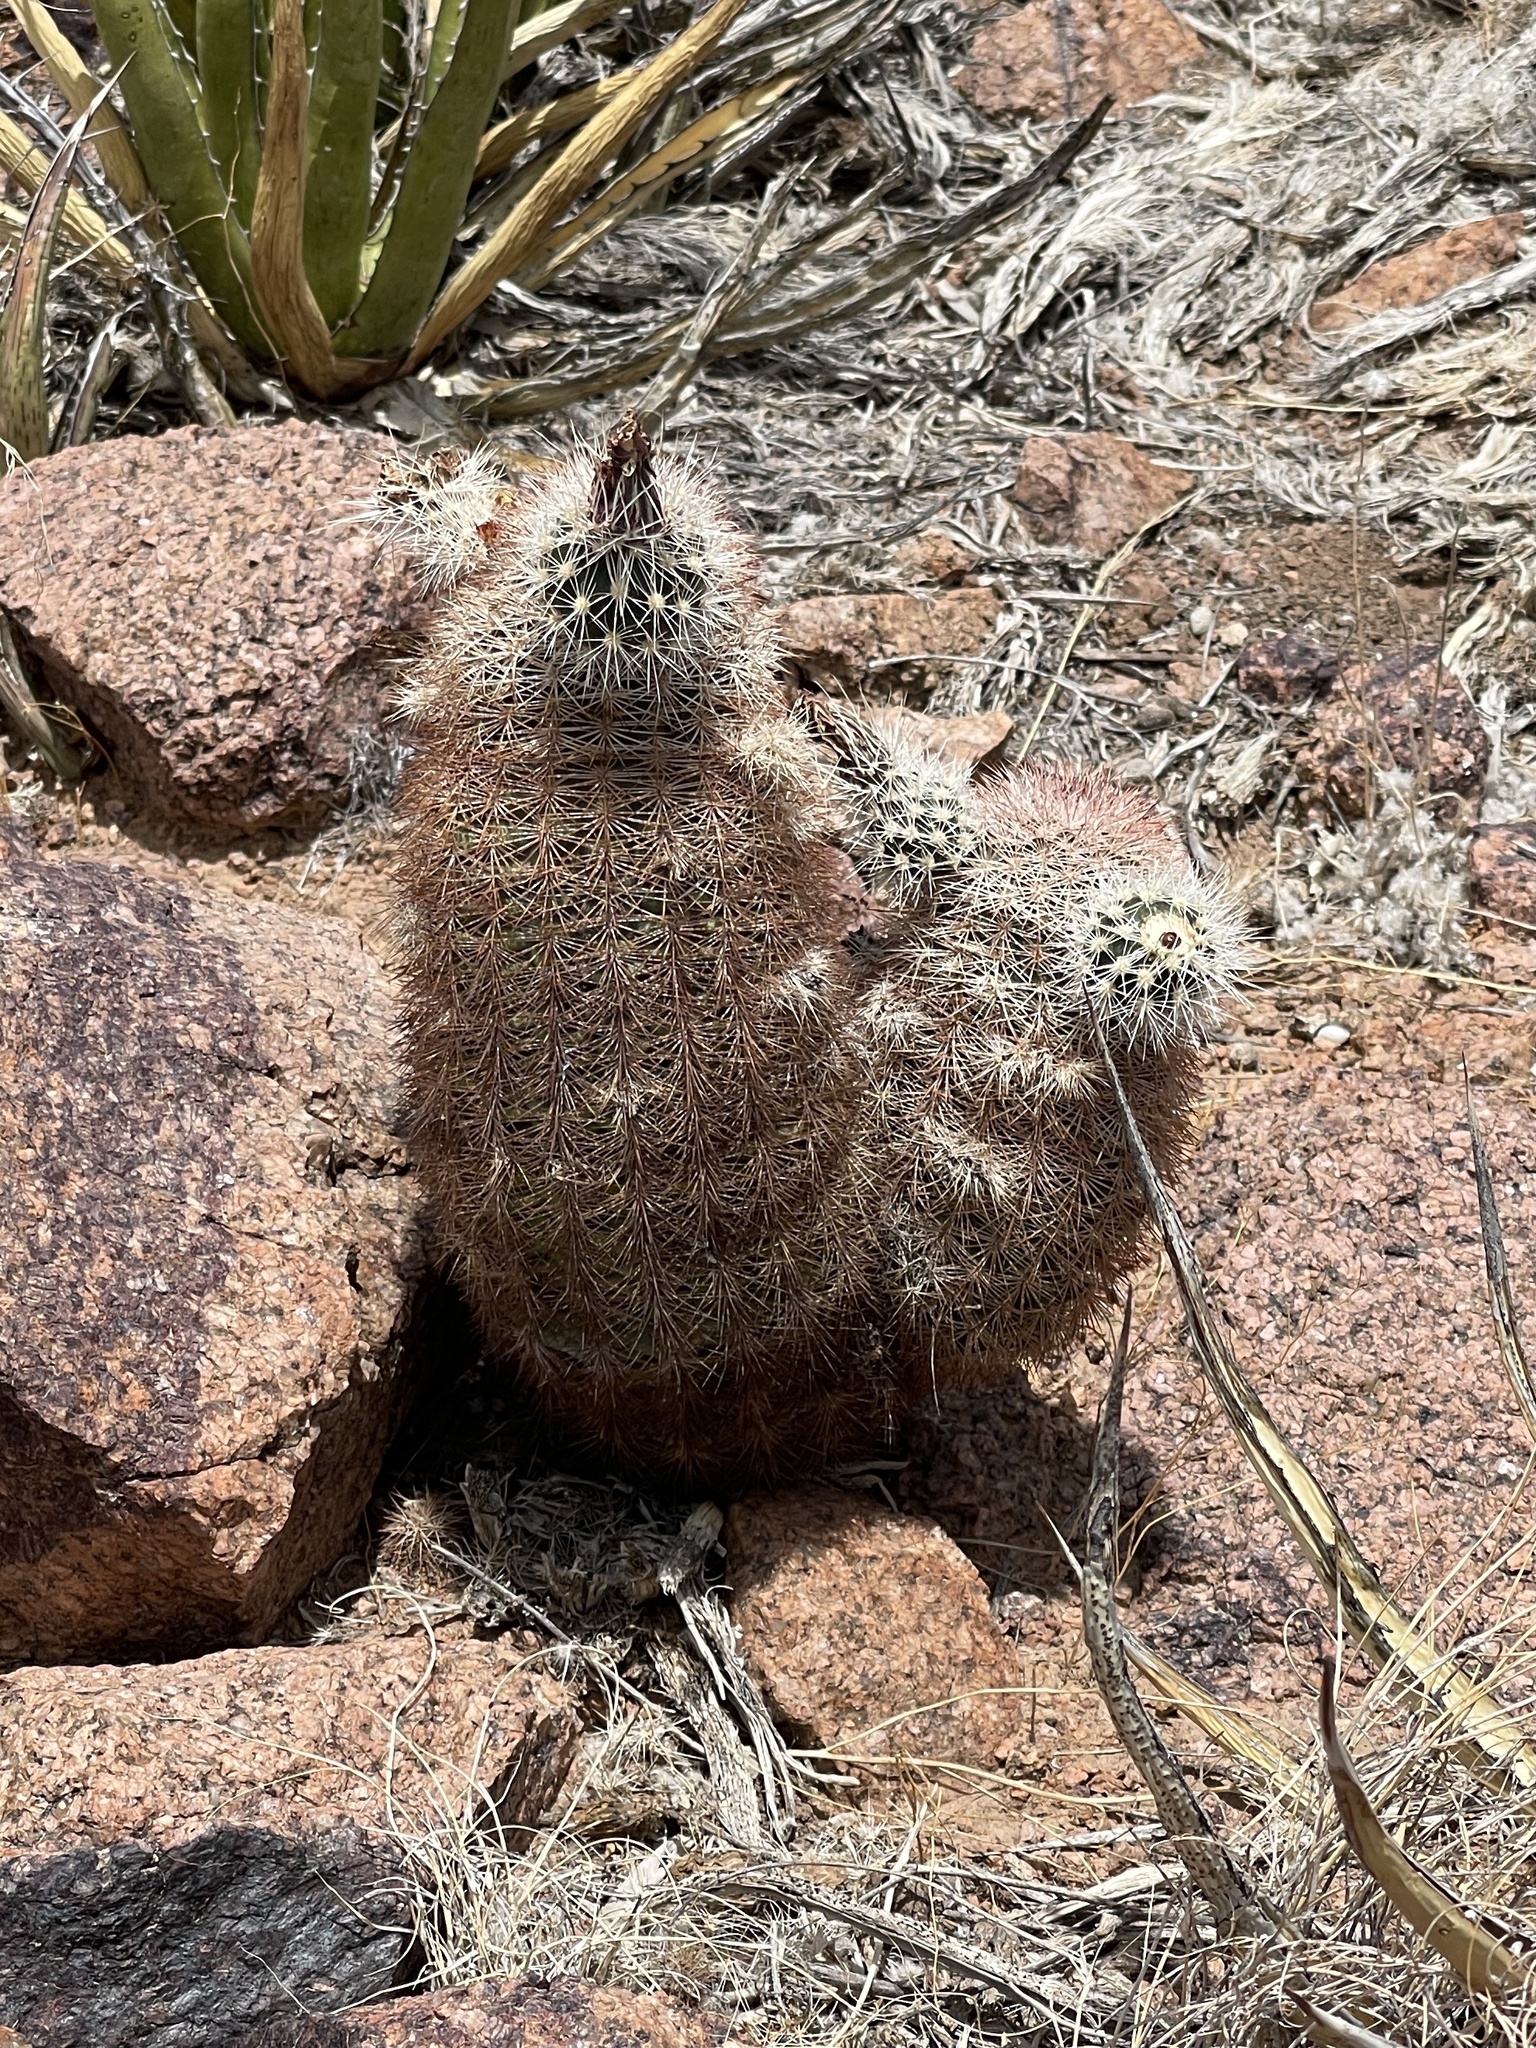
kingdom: Plantae
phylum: Tracheophyta
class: Magnoliopsida
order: Caryophyllales
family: Cactaceae
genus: Echinocereus
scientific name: Echinocereus dasyacanthus
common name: Spiny hedgehog cactus
